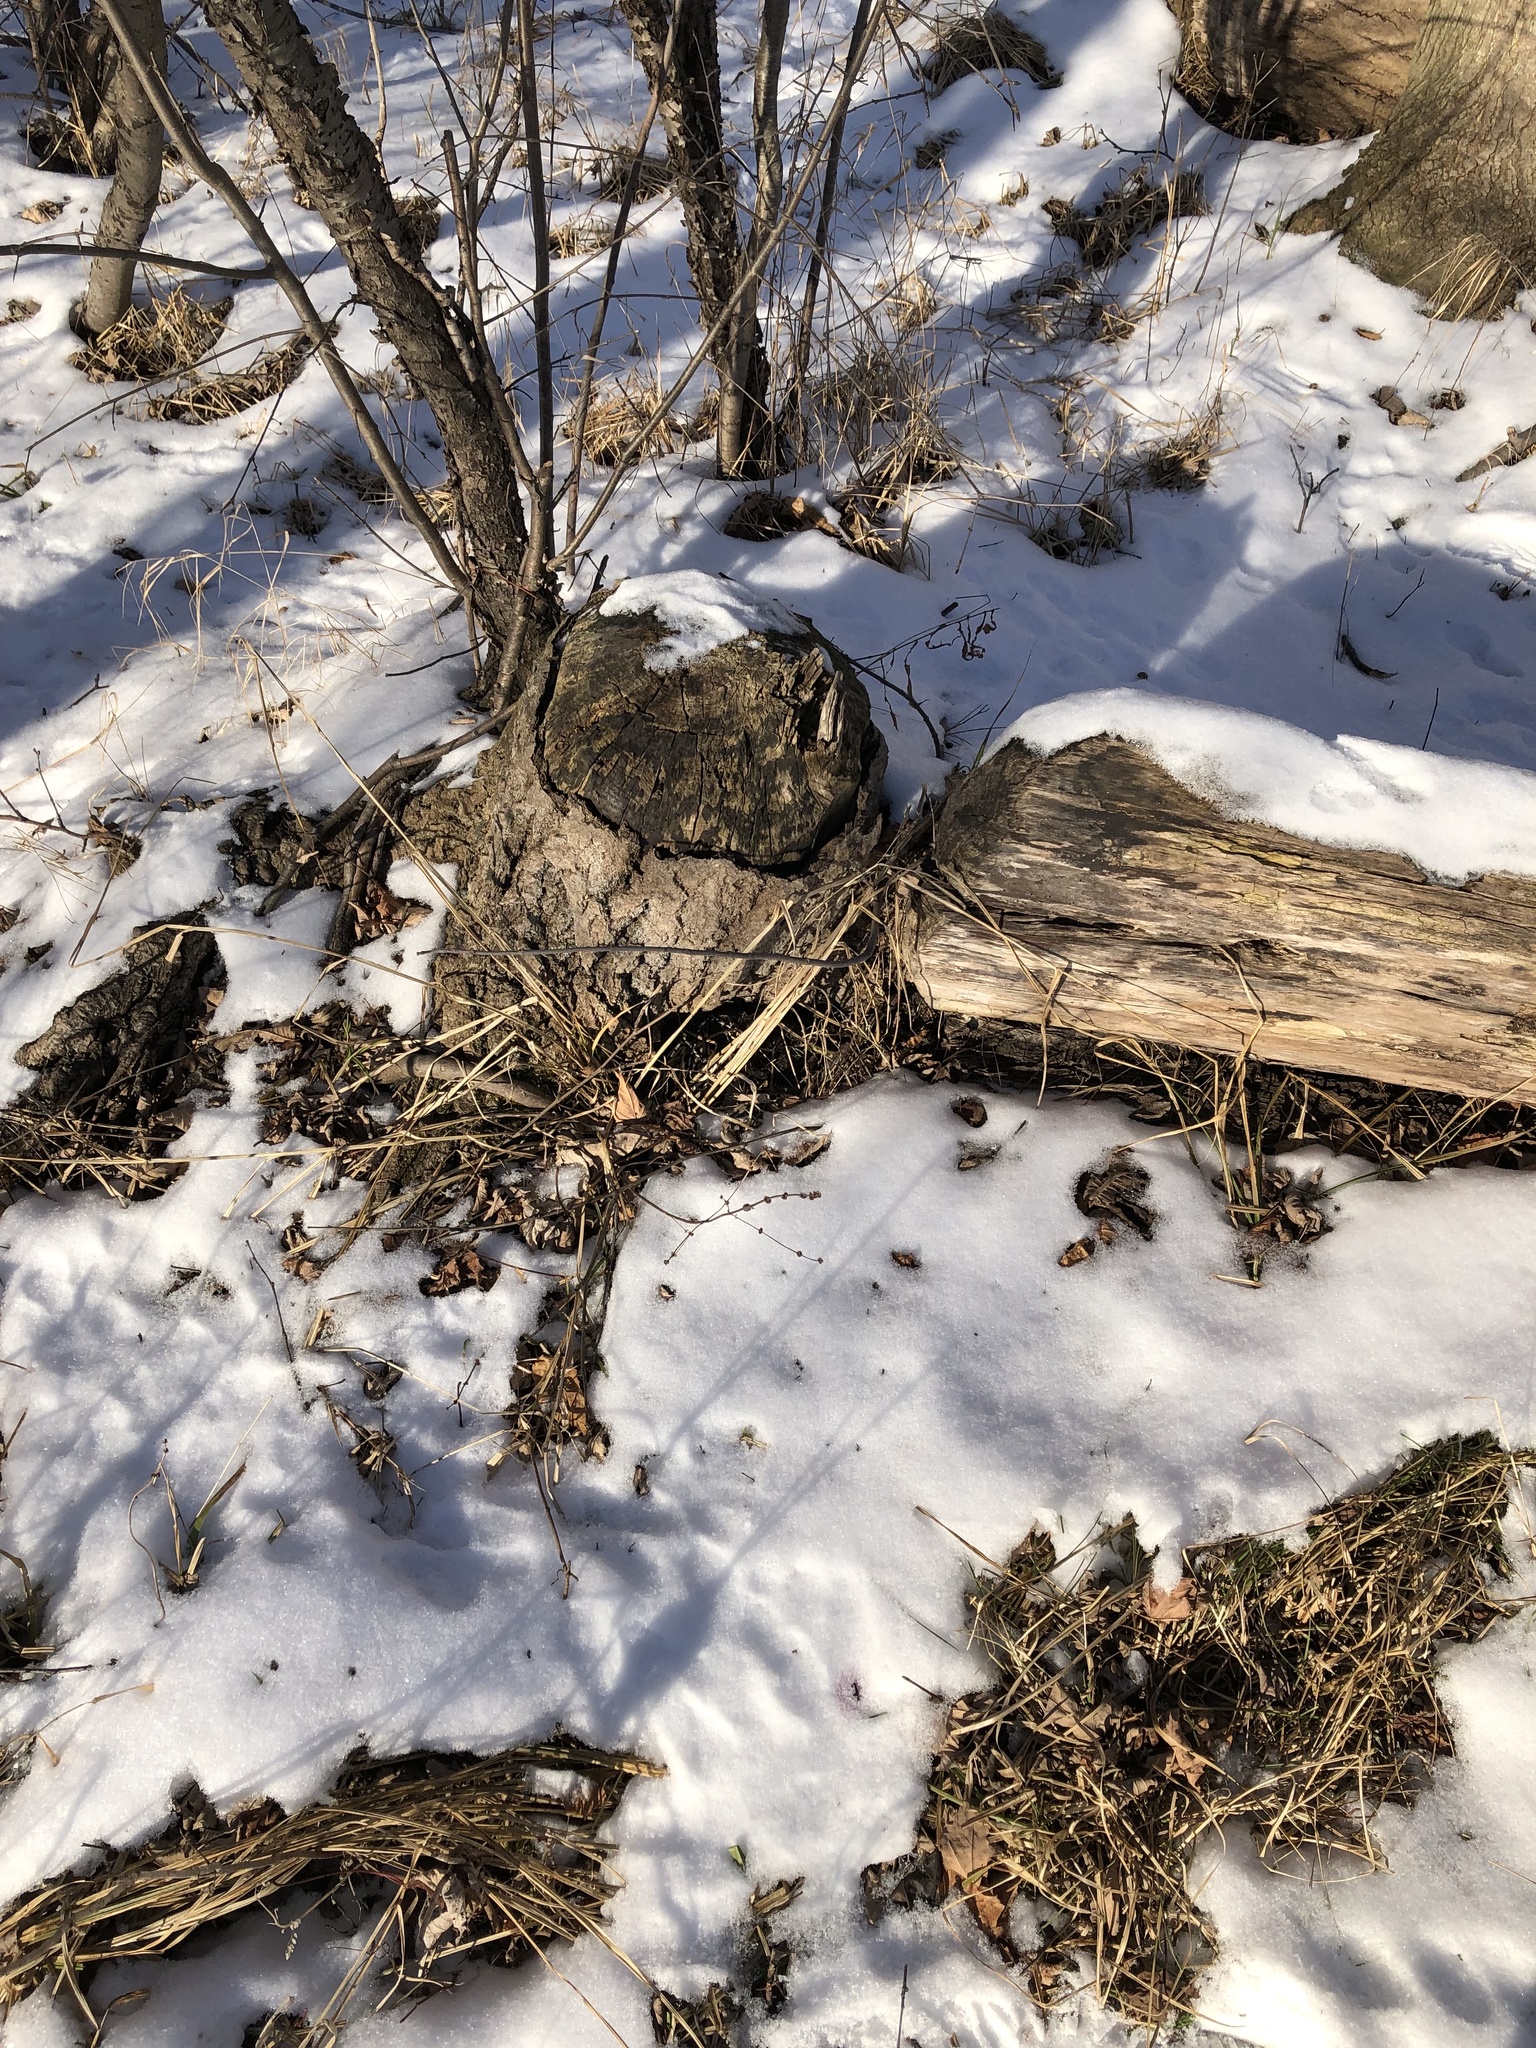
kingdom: Animalia
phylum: Chordata
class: Mammalia
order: Rodentia
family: Castoridae
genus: Castor
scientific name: Castor canadensis
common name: American beaver
